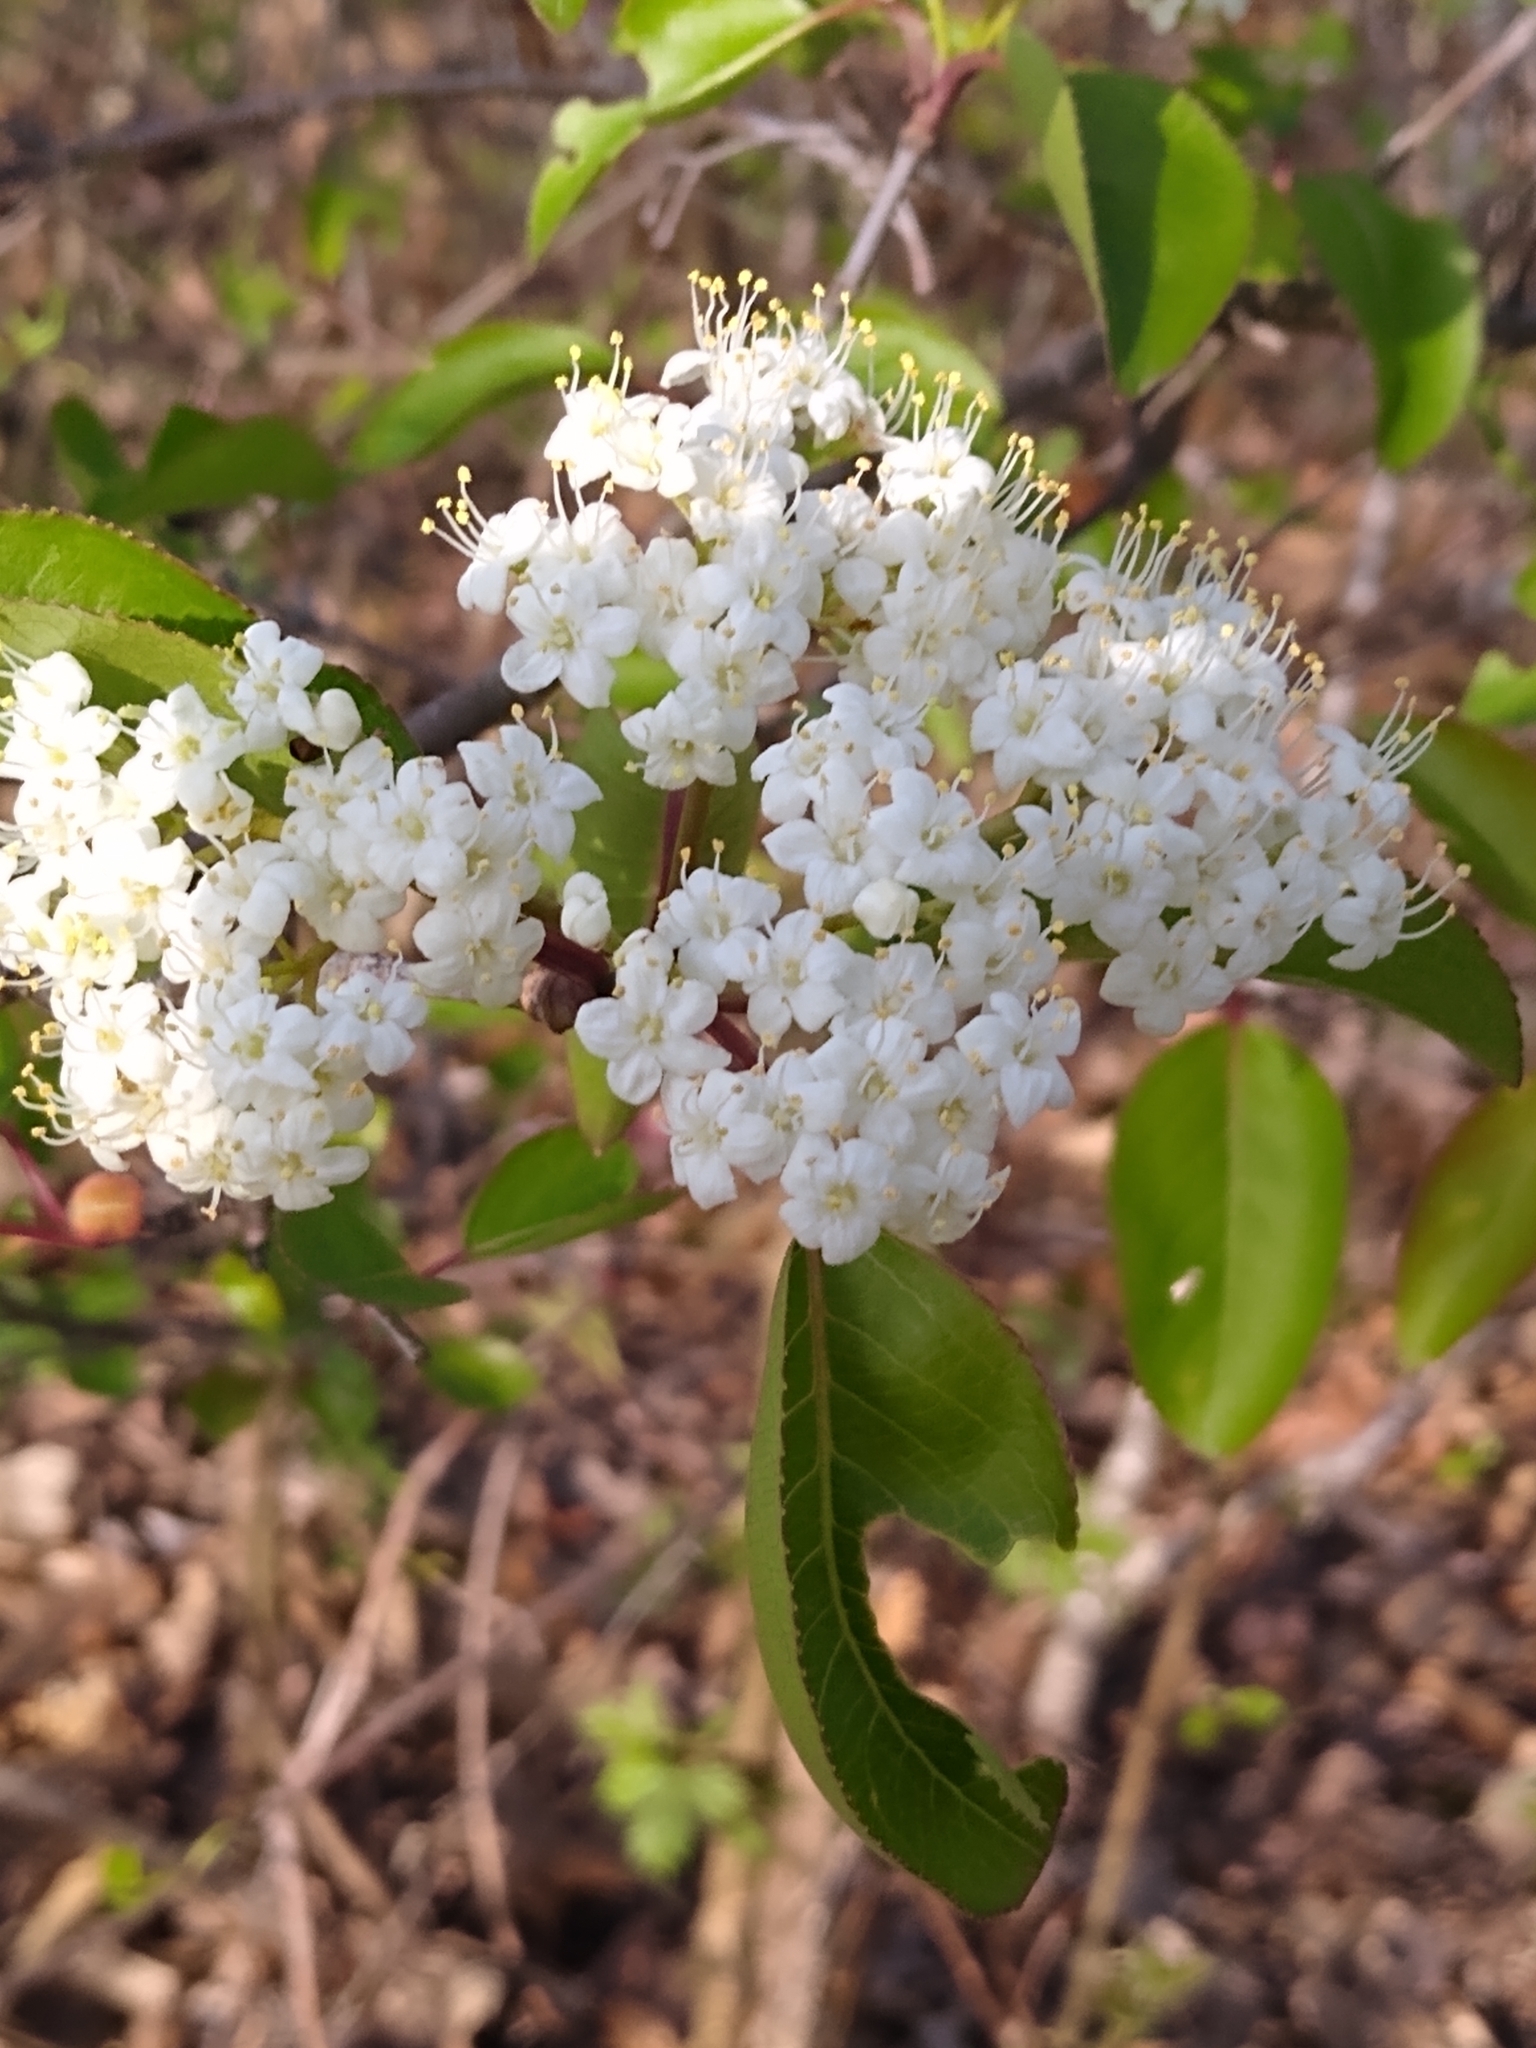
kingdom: Plantae
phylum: Tracheophyta
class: Magnoliopsida
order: Dipsacales
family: Viburnaceae
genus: Viburnum
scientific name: Viburnum prunifolium
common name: Black haw
